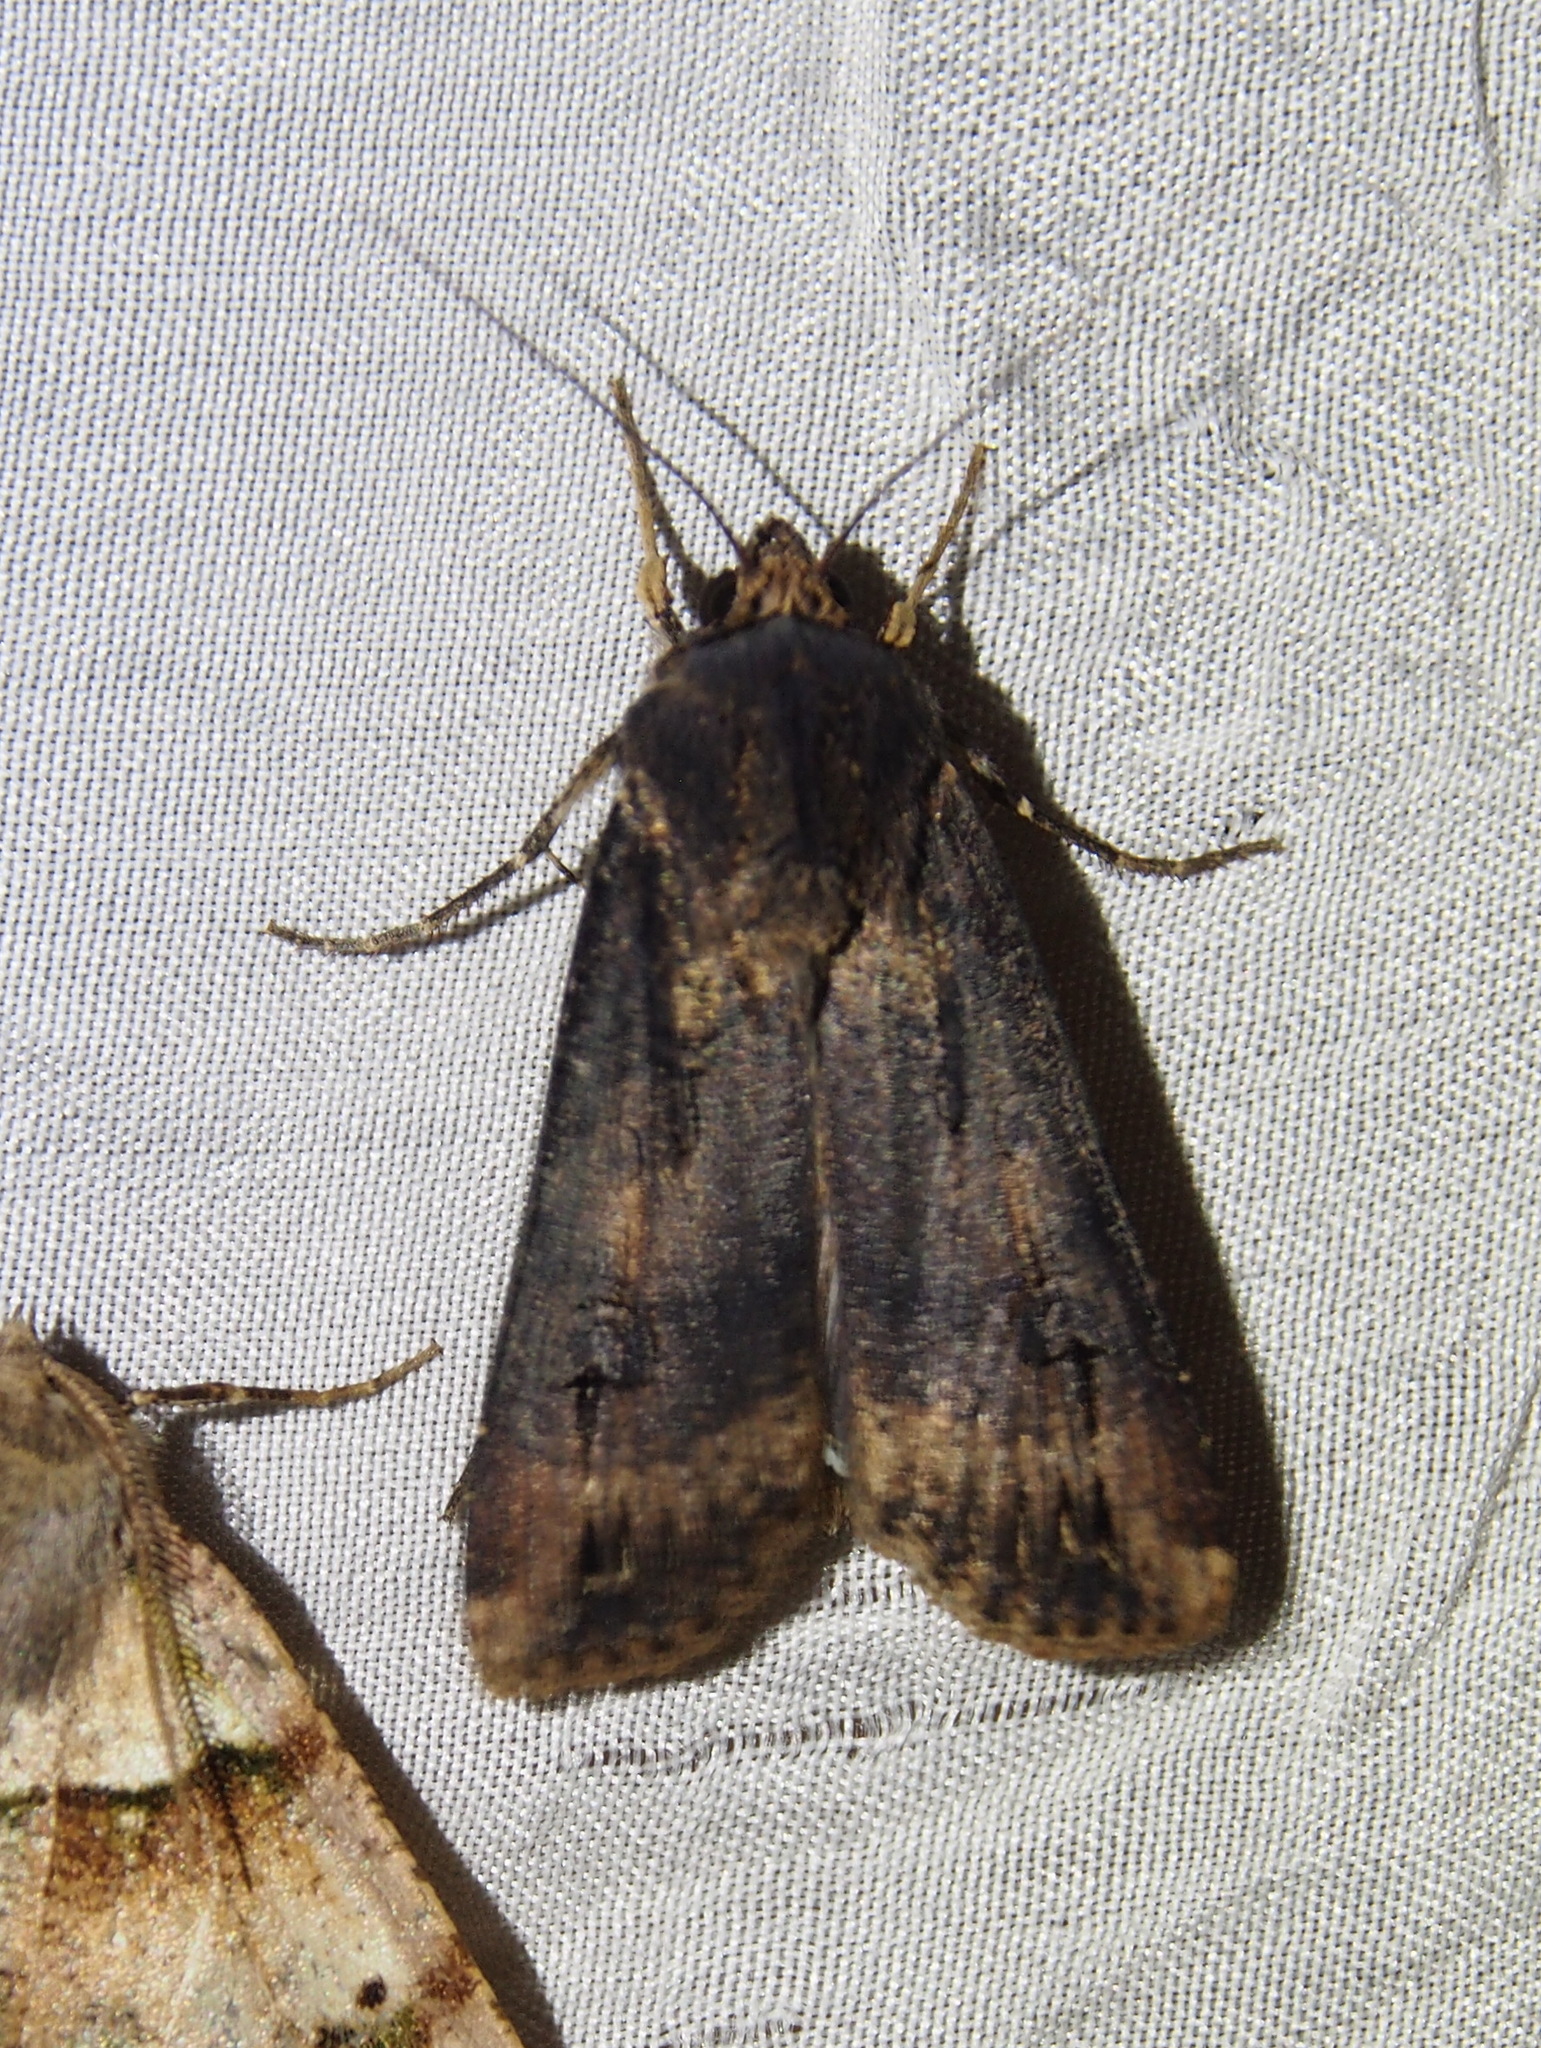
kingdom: Animalia
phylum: Arthropoda
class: Insecta
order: Lepidoptera
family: Noctuidae
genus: Agrotis
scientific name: Agrotis ipsilon
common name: Dark sword-grass
